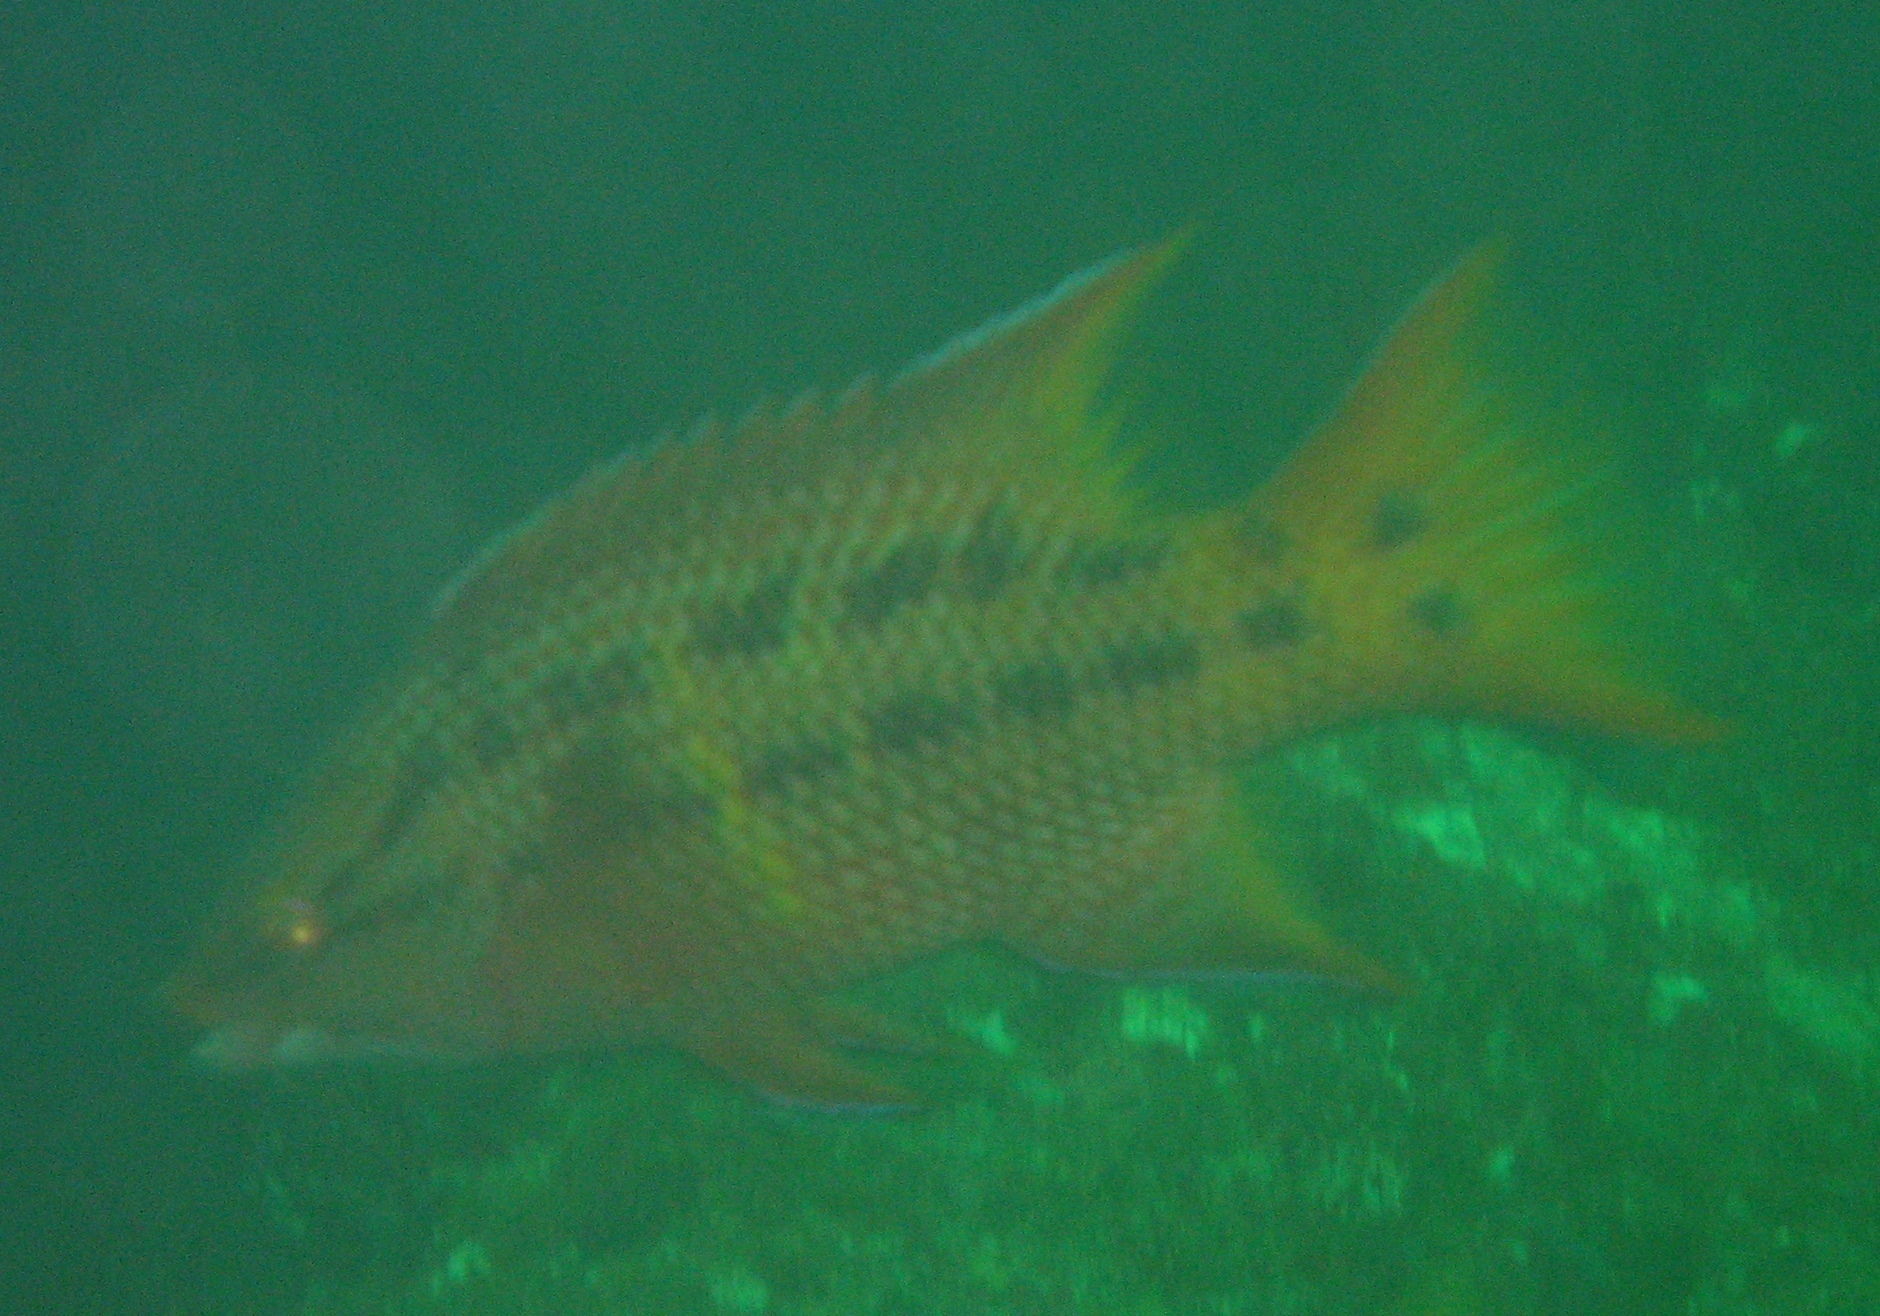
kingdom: Animalia
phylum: Chordata
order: Perciformes
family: Labridae
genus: Bodianus
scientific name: Bodianus diplotaenia
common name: Mexican hogfish
